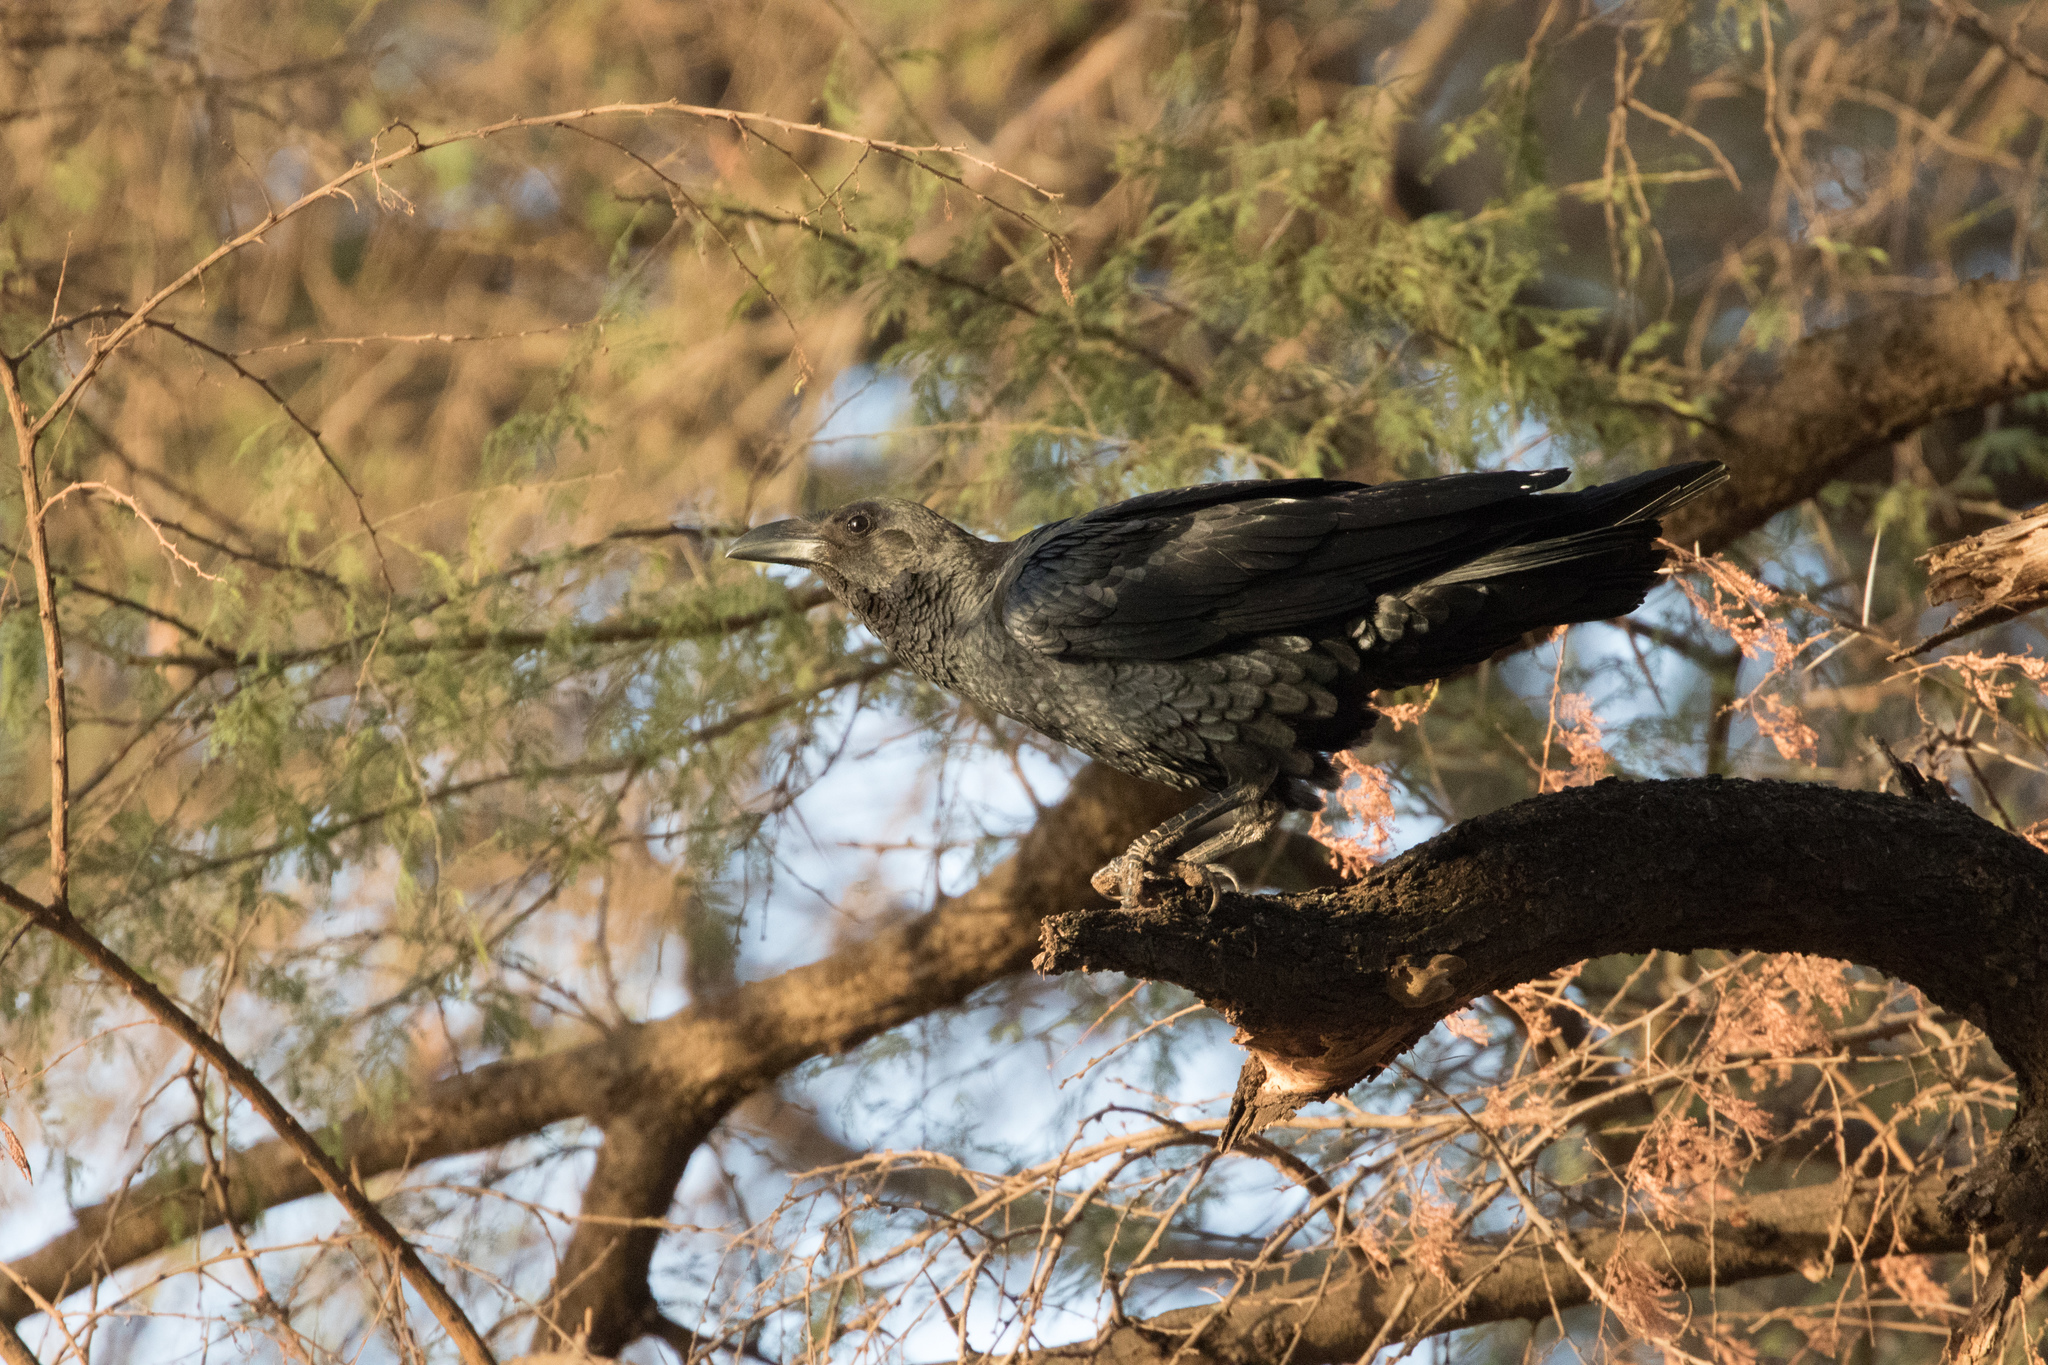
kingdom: Animalia
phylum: Chordata
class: Aves
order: Passeriformes
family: Corvidae
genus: Corvus
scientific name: Corvus rhipidurus
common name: Fan-tailed raven
